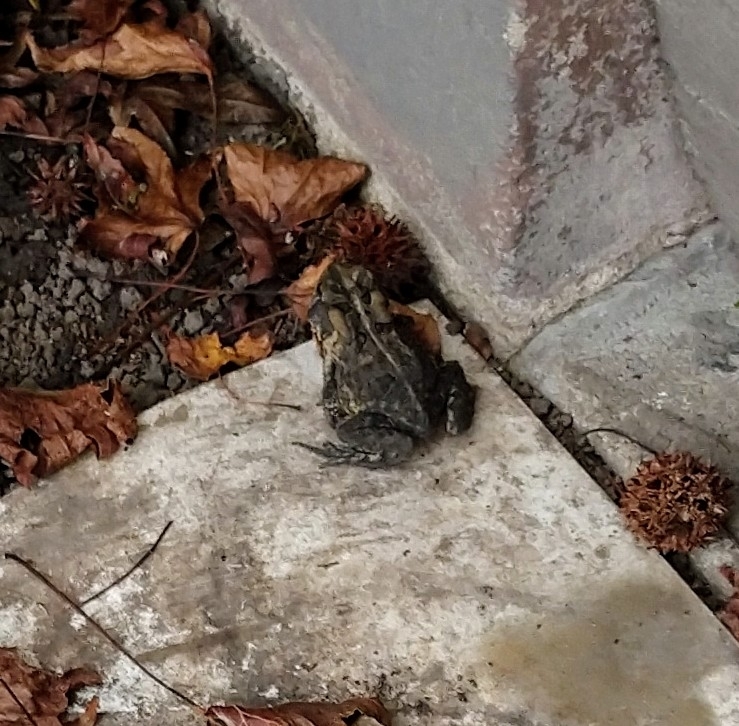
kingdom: Animalia
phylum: Chordata
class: Amphibia
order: Anura
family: Bufonidae
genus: Anaxyrus
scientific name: Anaxyrus terrestris
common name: Southern toad
